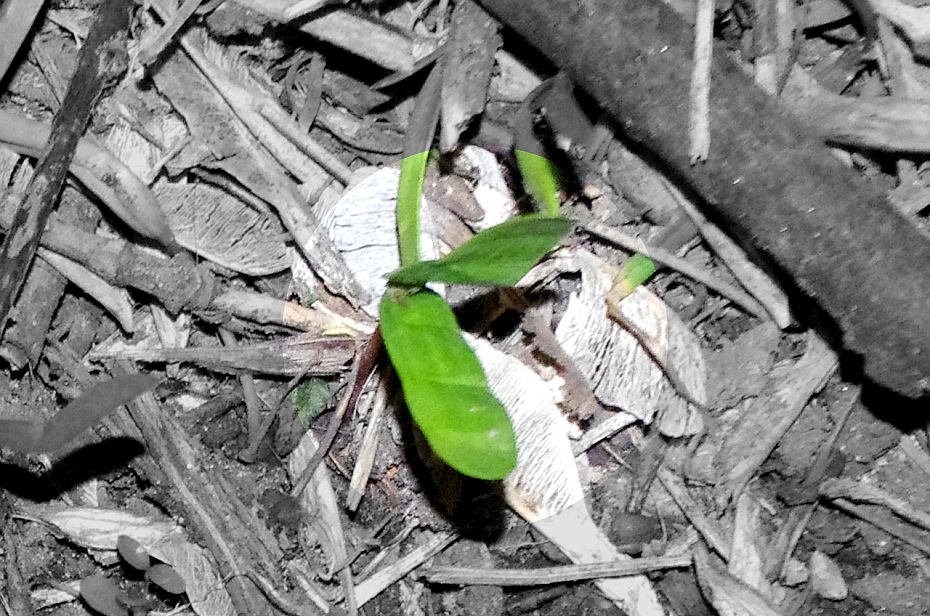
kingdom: Plantae
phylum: Tracheophyta
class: Magnoliopsida
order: Sapindales
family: Sapindaceae
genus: Acer
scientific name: Acer platanoides
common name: Norway maple
